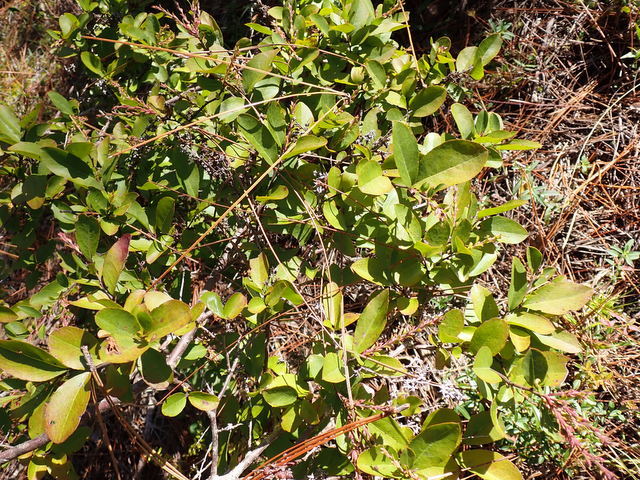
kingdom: Plantae
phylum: Tracheophyta
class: Magnoliopsida
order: Ericales
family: Ericaceae
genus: Eubotrys
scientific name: Eubotrys racemosa
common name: Fetterbush
